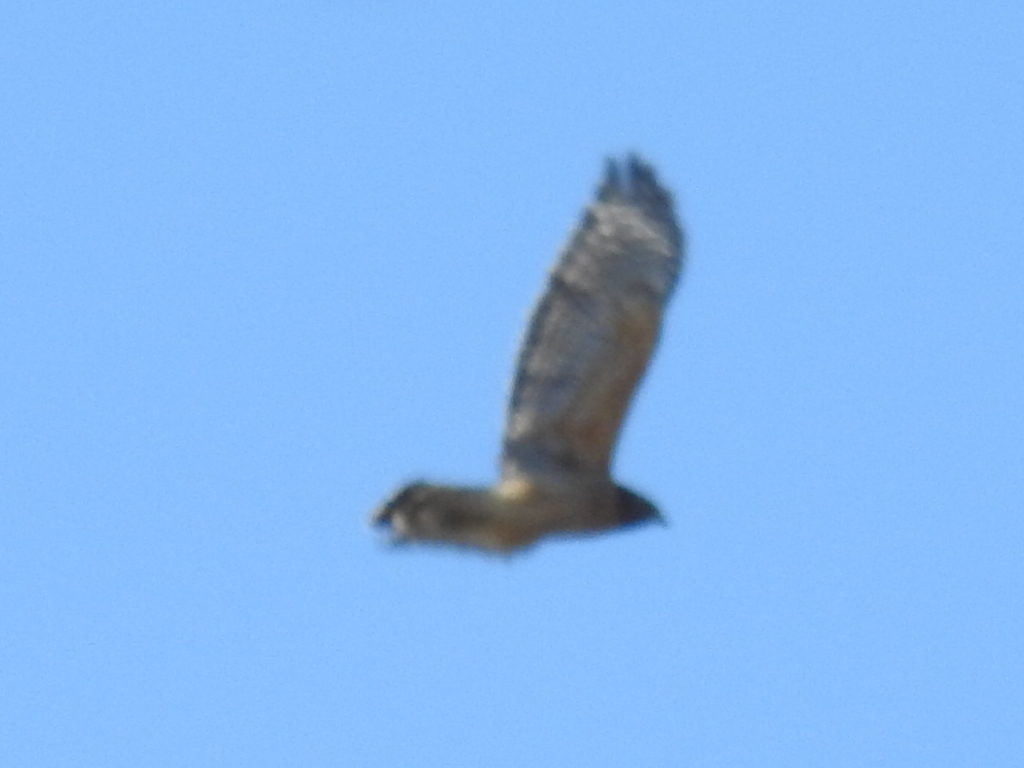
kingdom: Animalia
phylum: Chordata
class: Aves
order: Accipitriformes
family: Accipitridae
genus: Buteo
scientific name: Buteo lineatus
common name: Red-shouldered hawk
